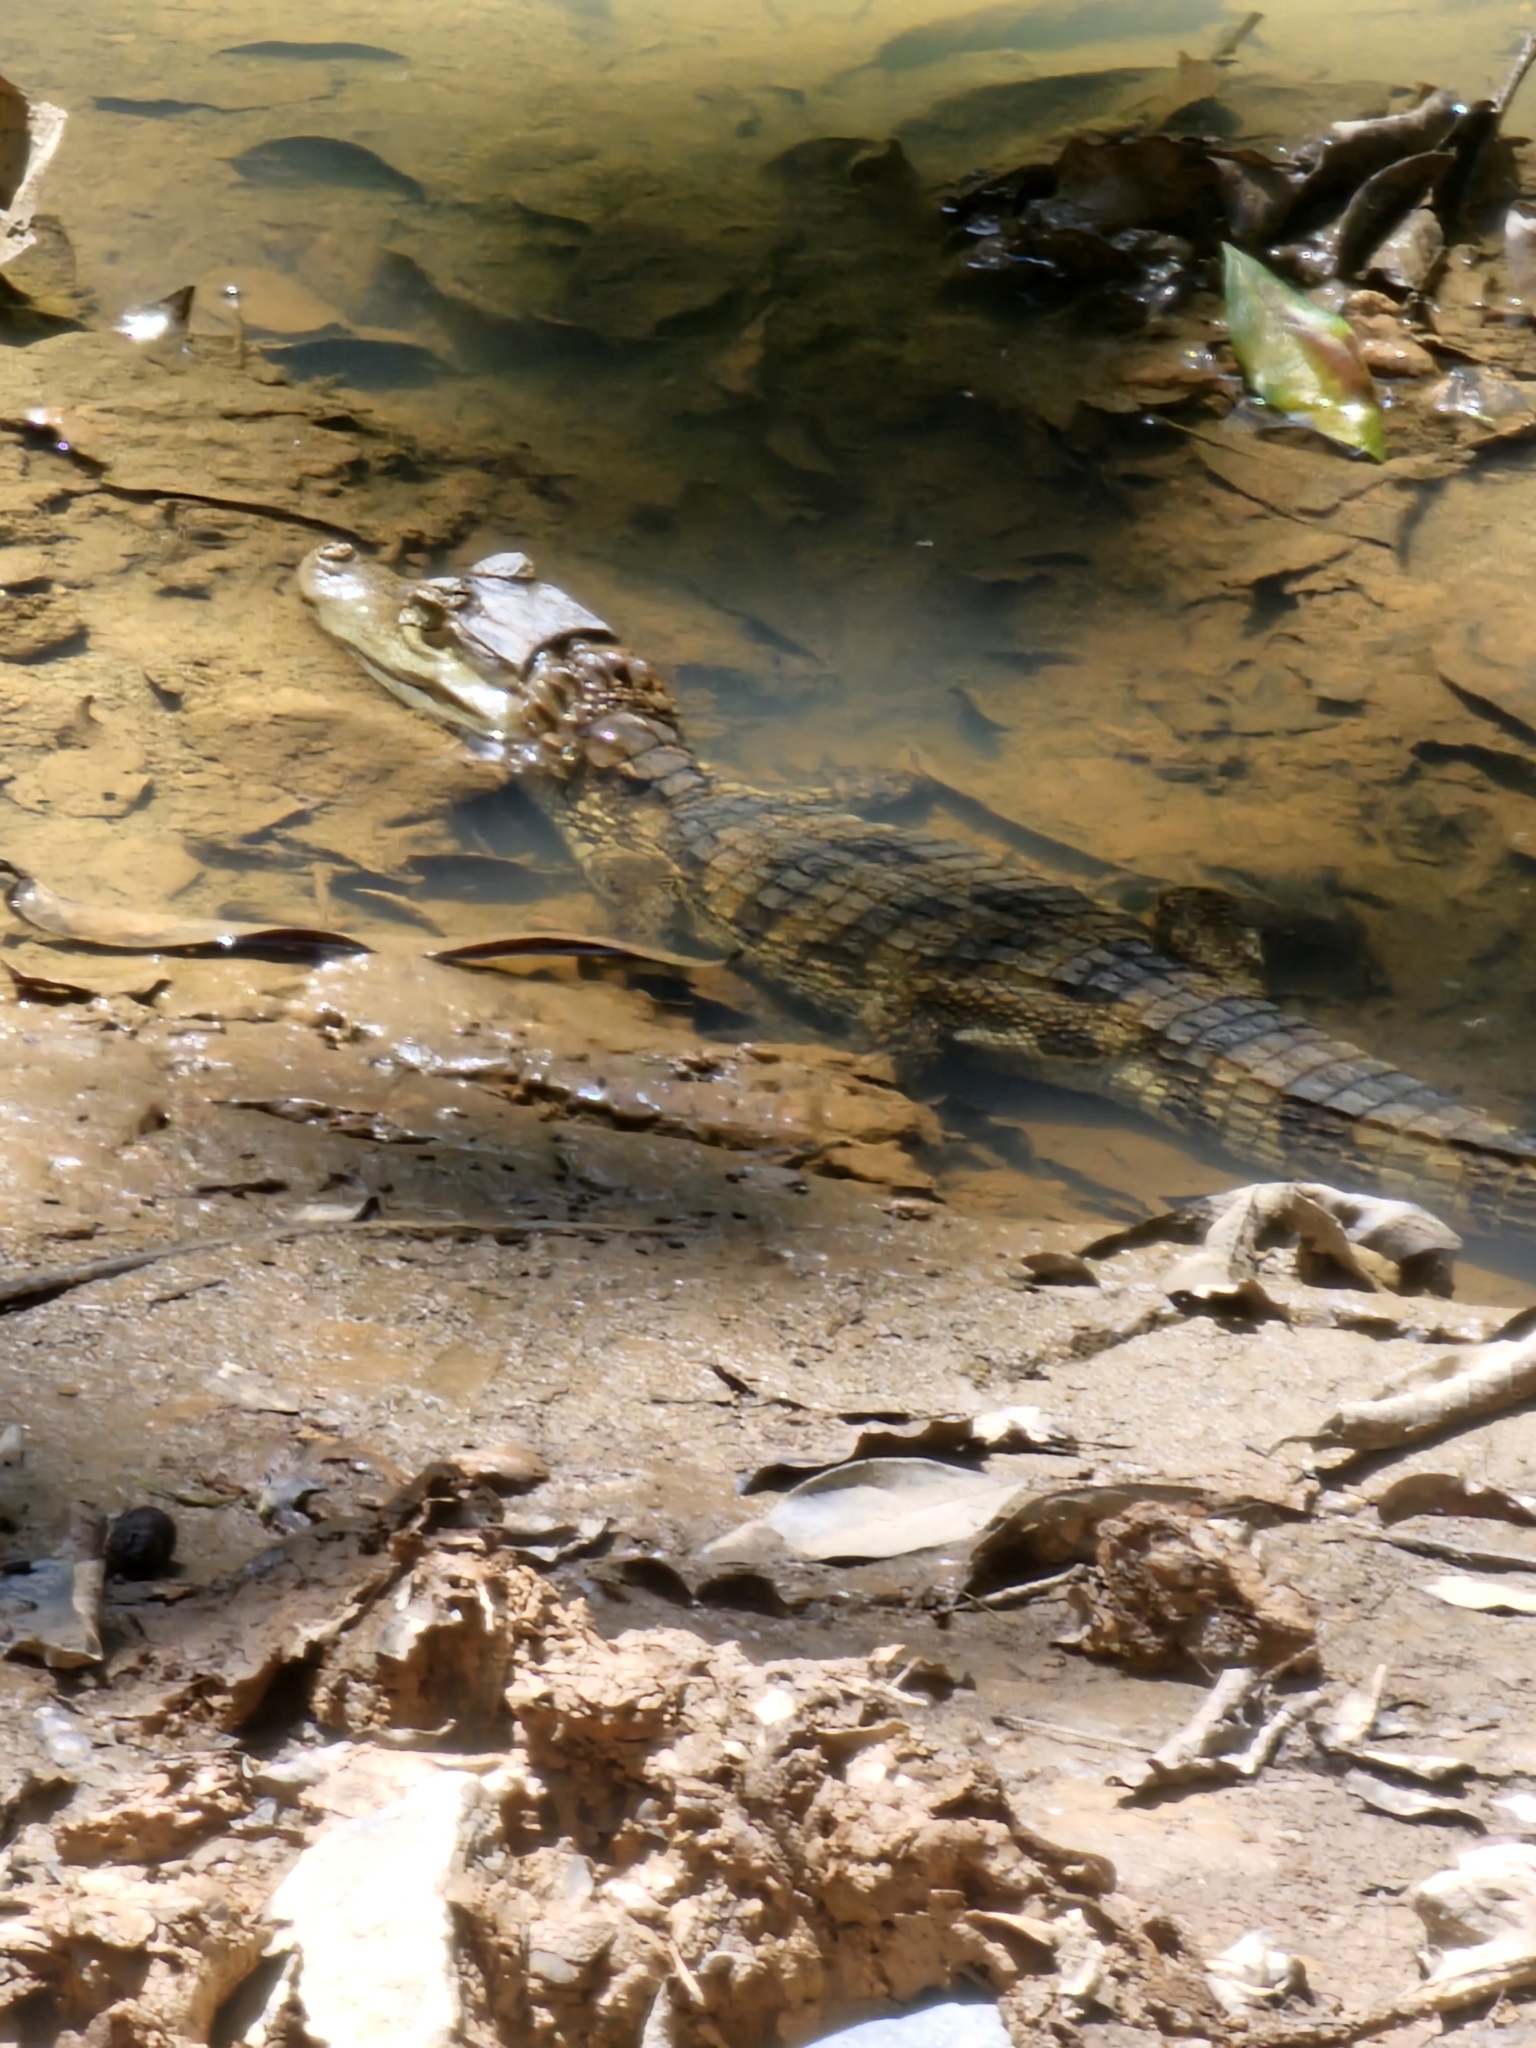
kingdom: Animalia
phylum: Chordata
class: Crocodylia
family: Alligatoridae
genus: Caiman
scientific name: Caiman crocodilus
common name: Common caiman
